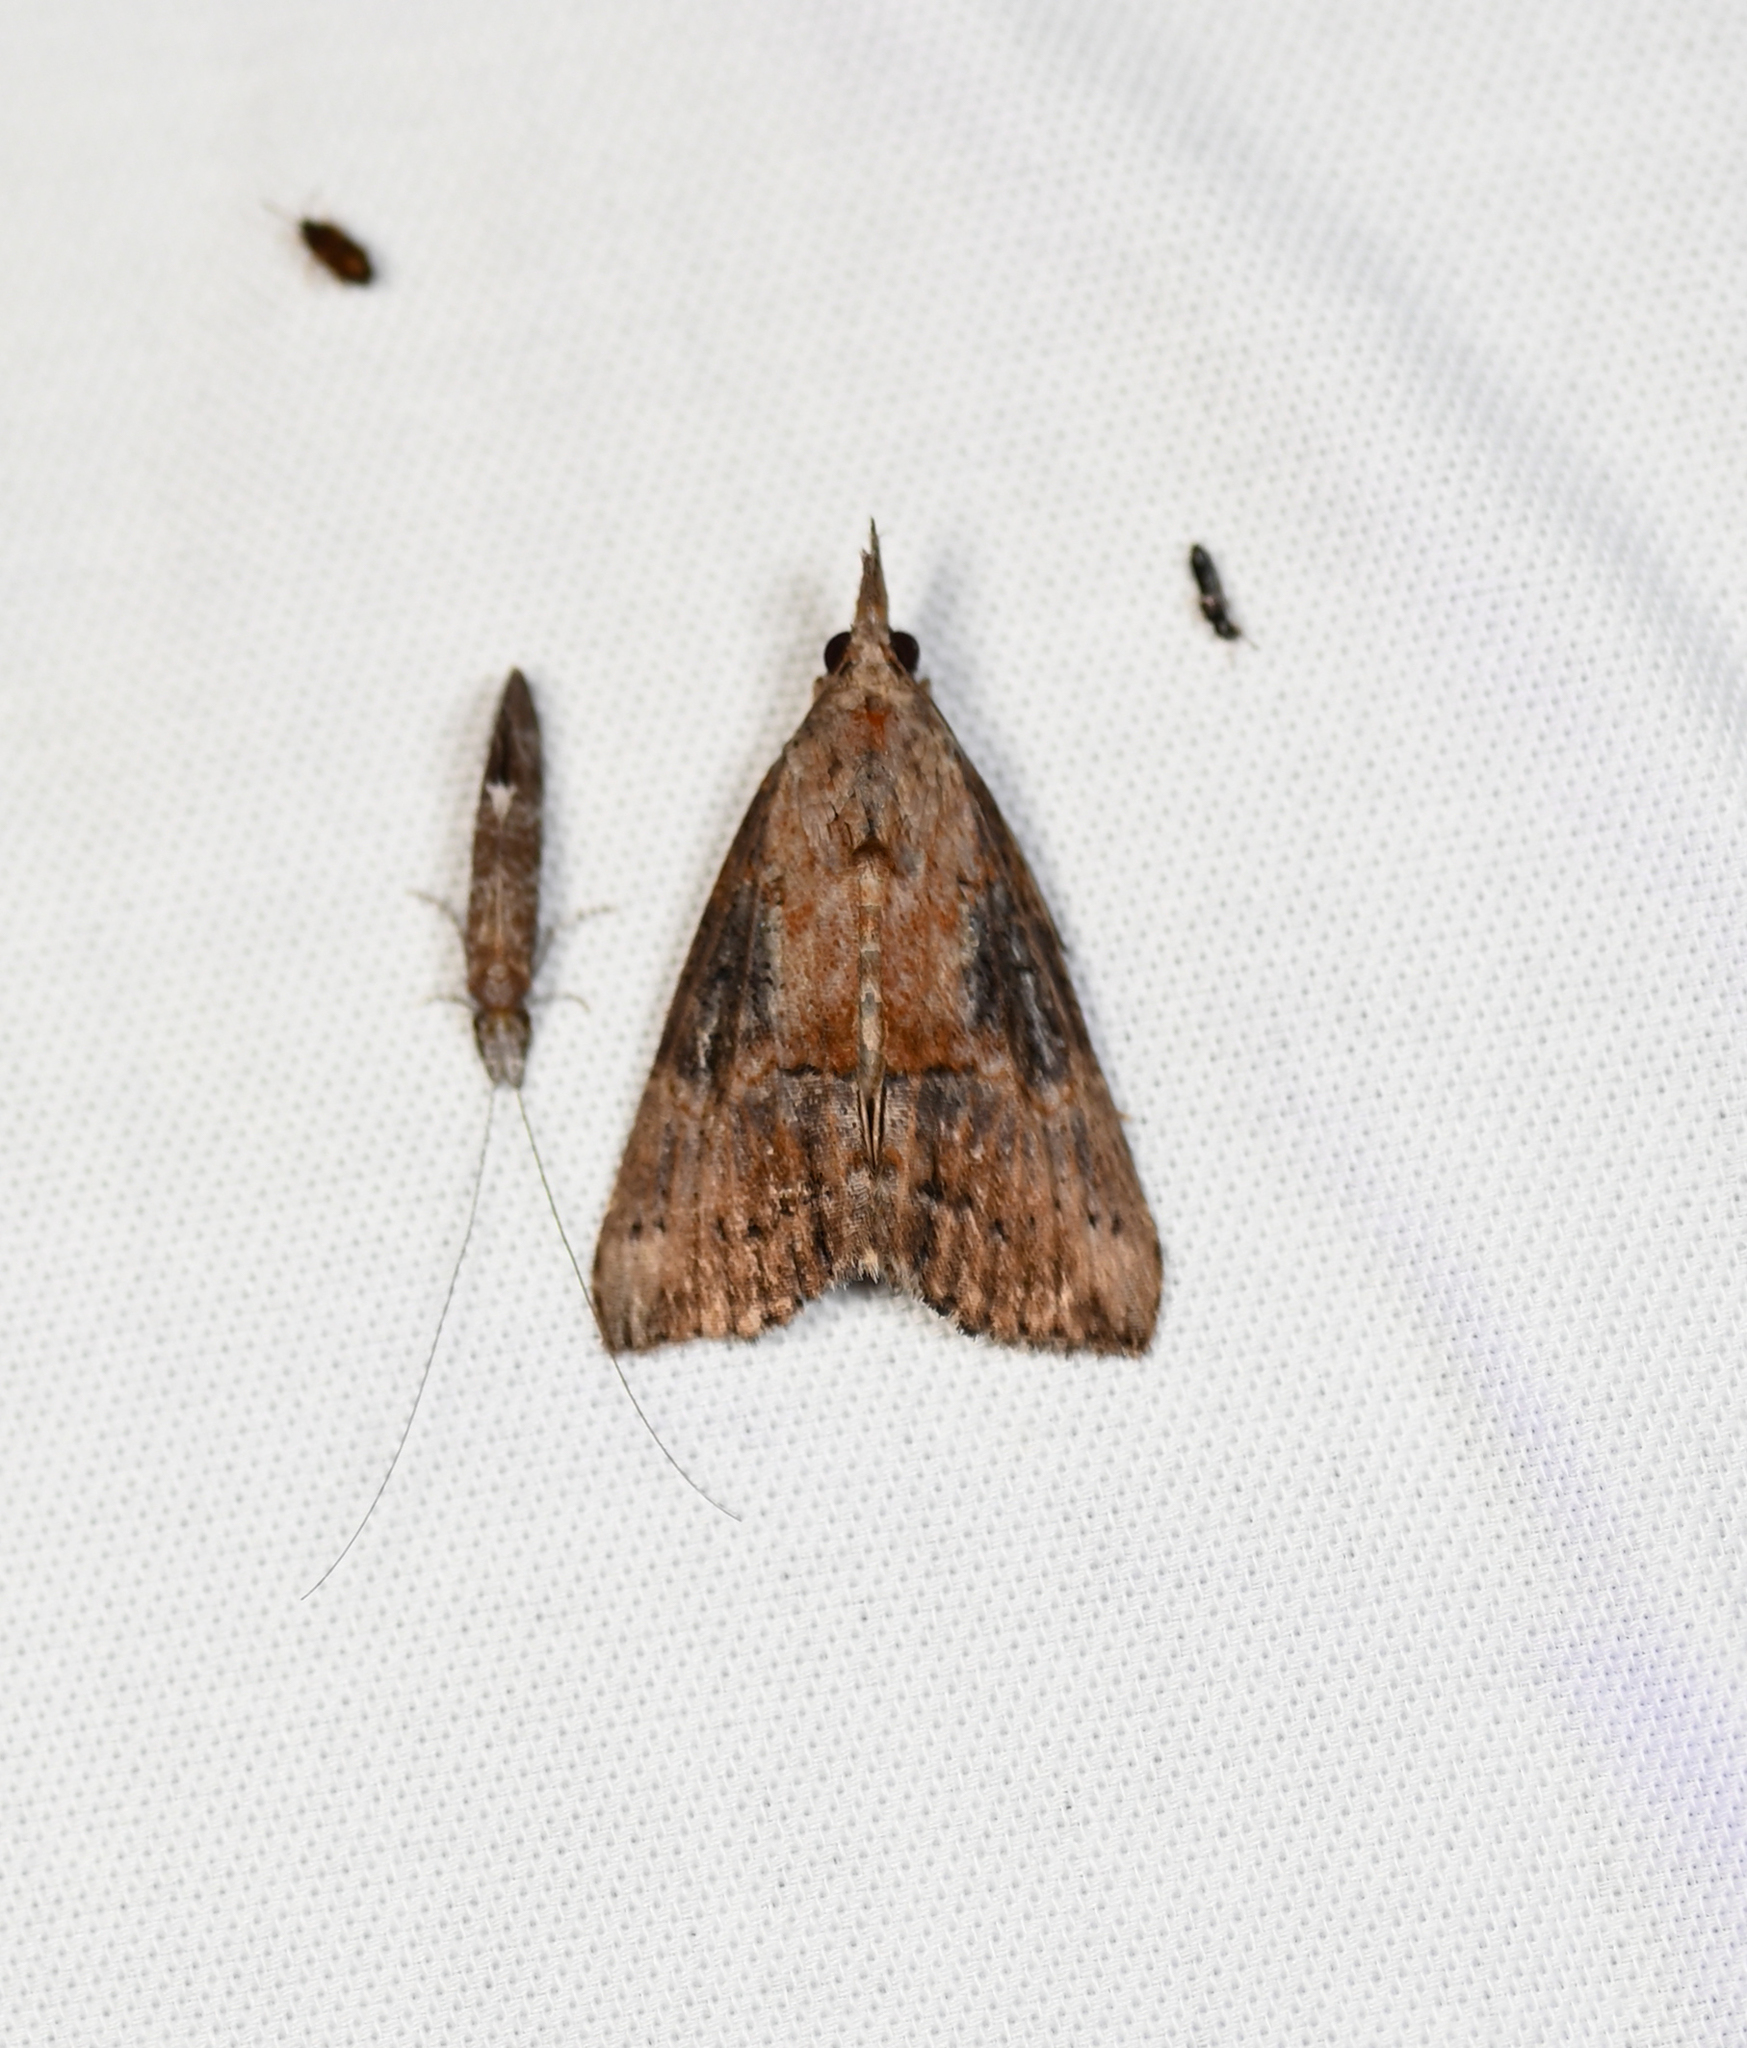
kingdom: Animalia
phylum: Arthropoda
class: Insecta
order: Lepidoptera
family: Erebidae
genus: Hypena
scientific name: Hypena scabra
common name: Green cloverworm
